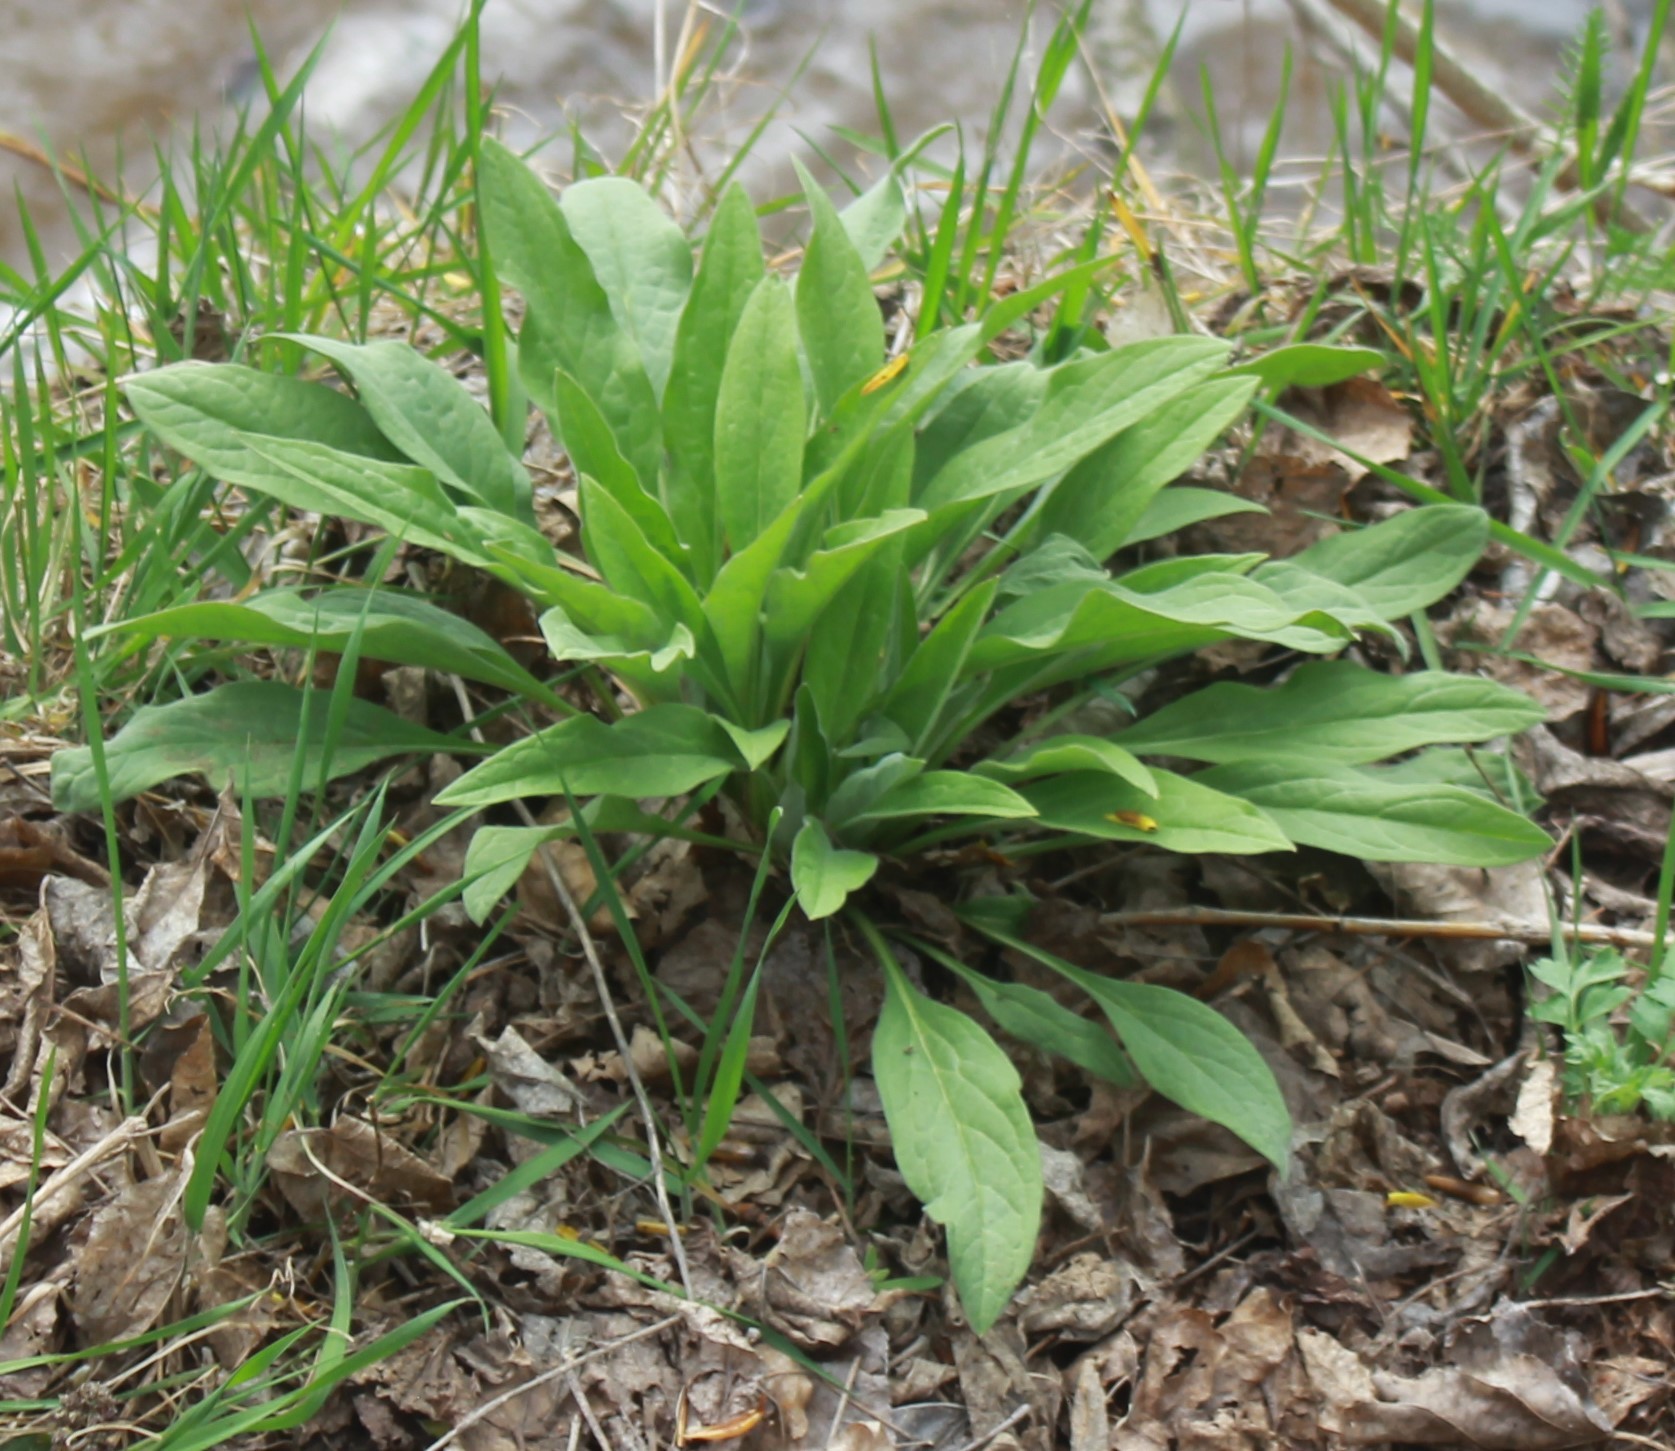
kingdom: Plantae
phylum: Tracheophyta
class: Magnoliopsida
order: Boraginales
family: Boraginaceae
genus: Cynoglossum
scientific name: Cynoglossum officinale
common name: Hound's-tongue
